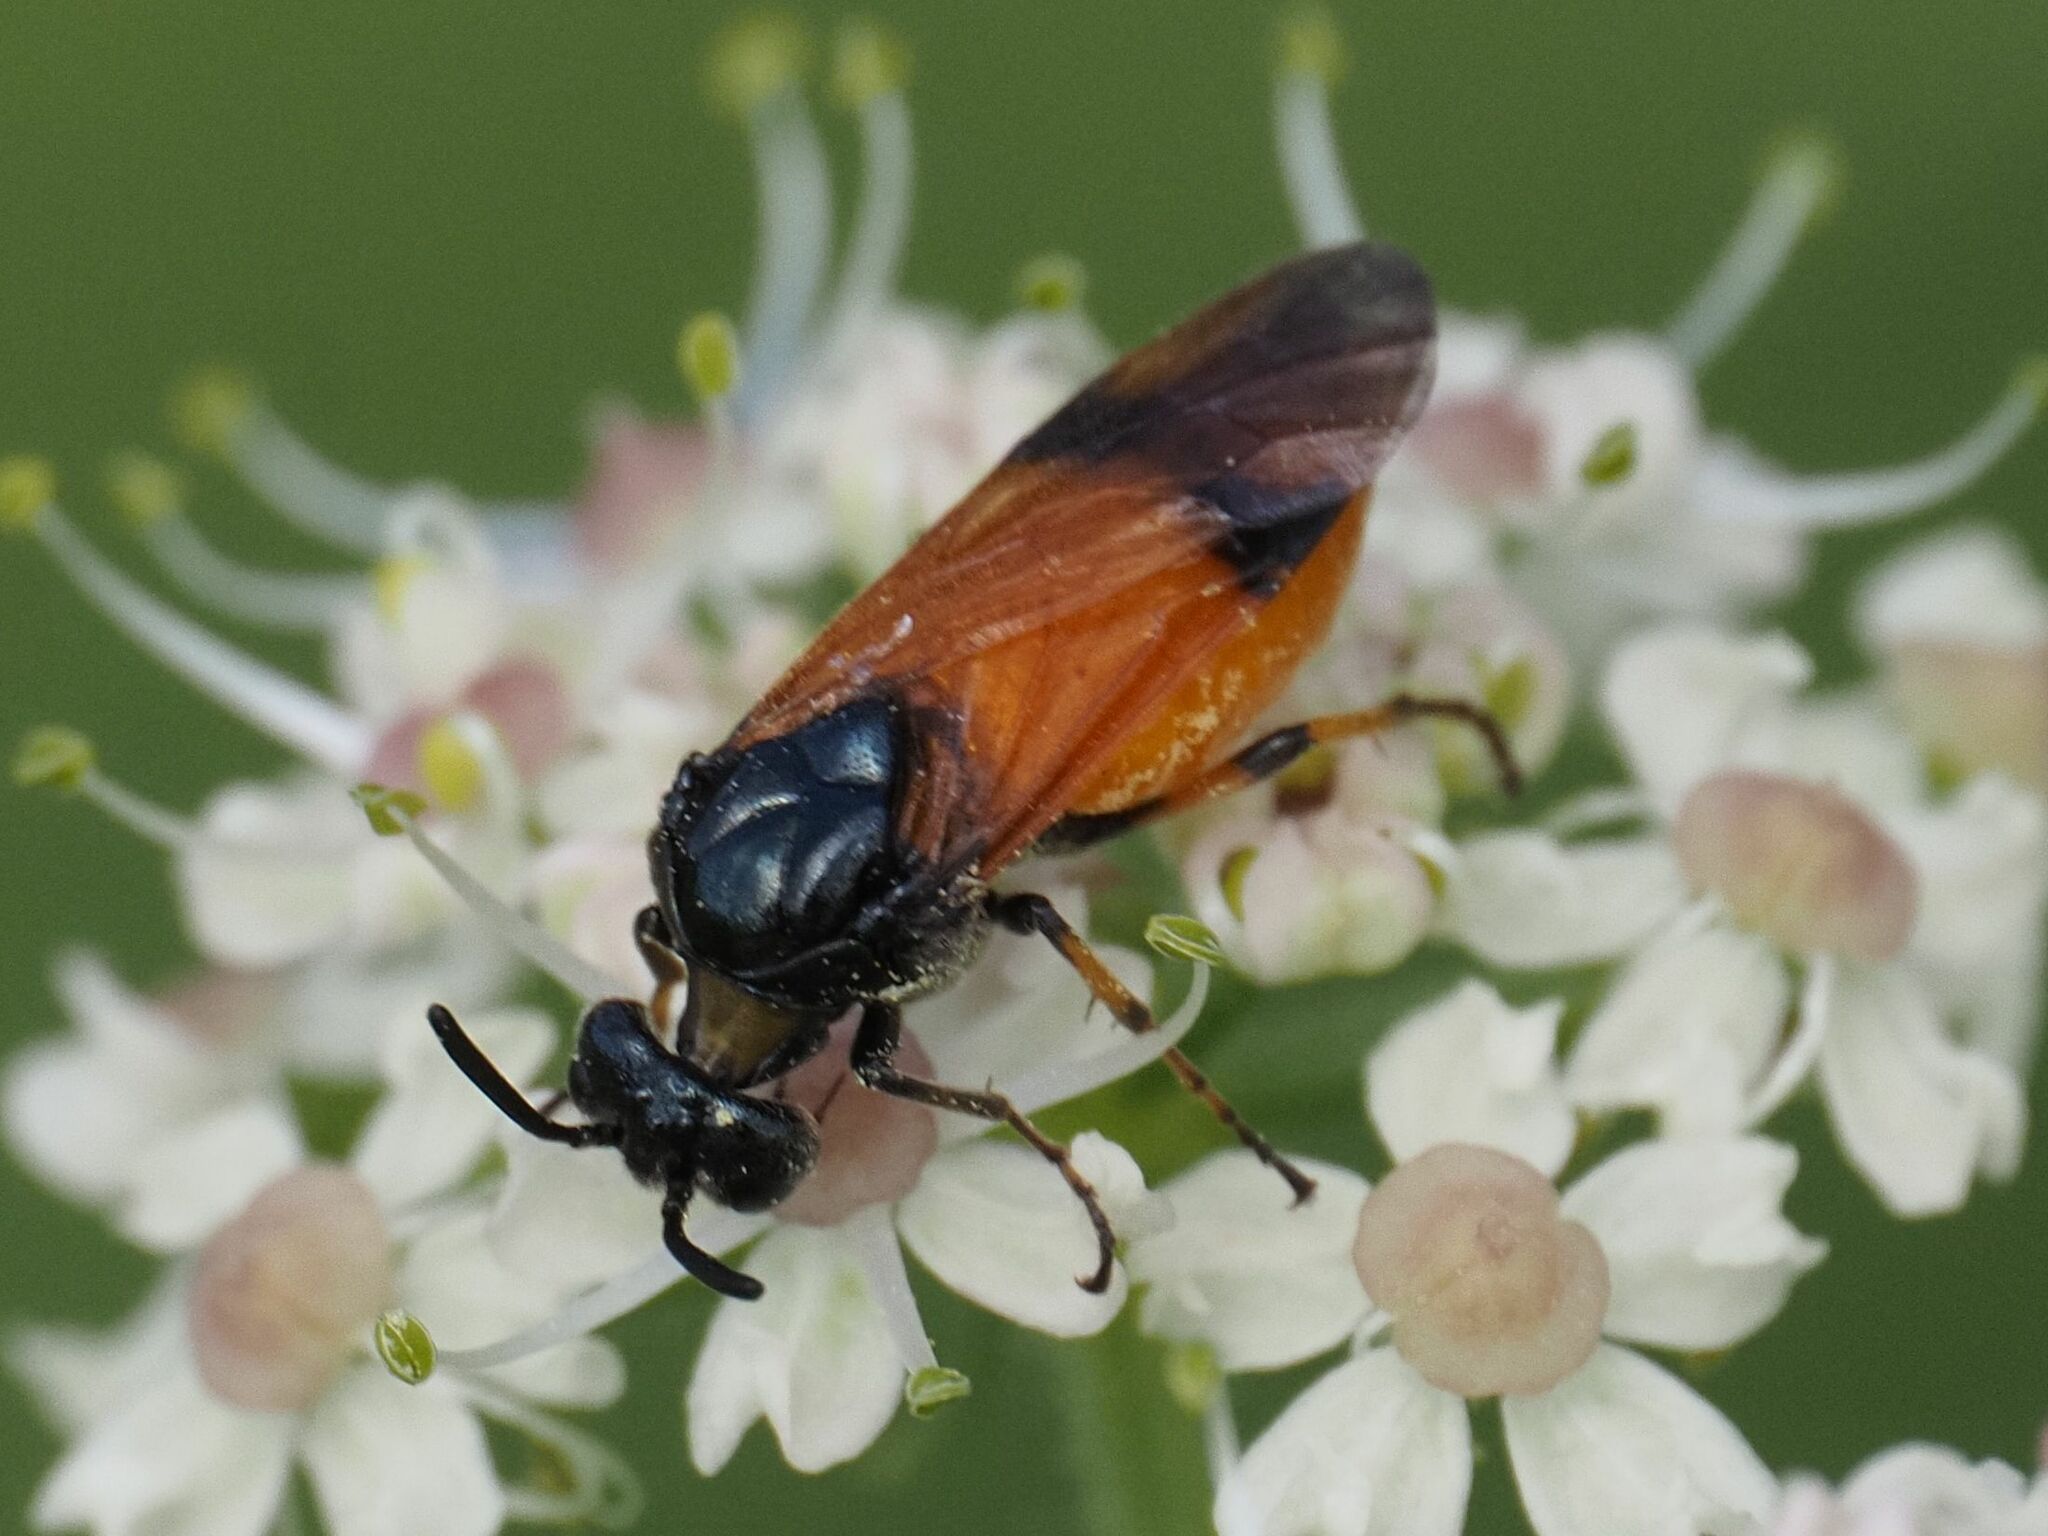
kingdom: Animalia
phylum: Arthropoda
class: Insecta
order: Hymenoptera
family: Argidae
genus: Arge
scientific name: Arge cyanocrocea
